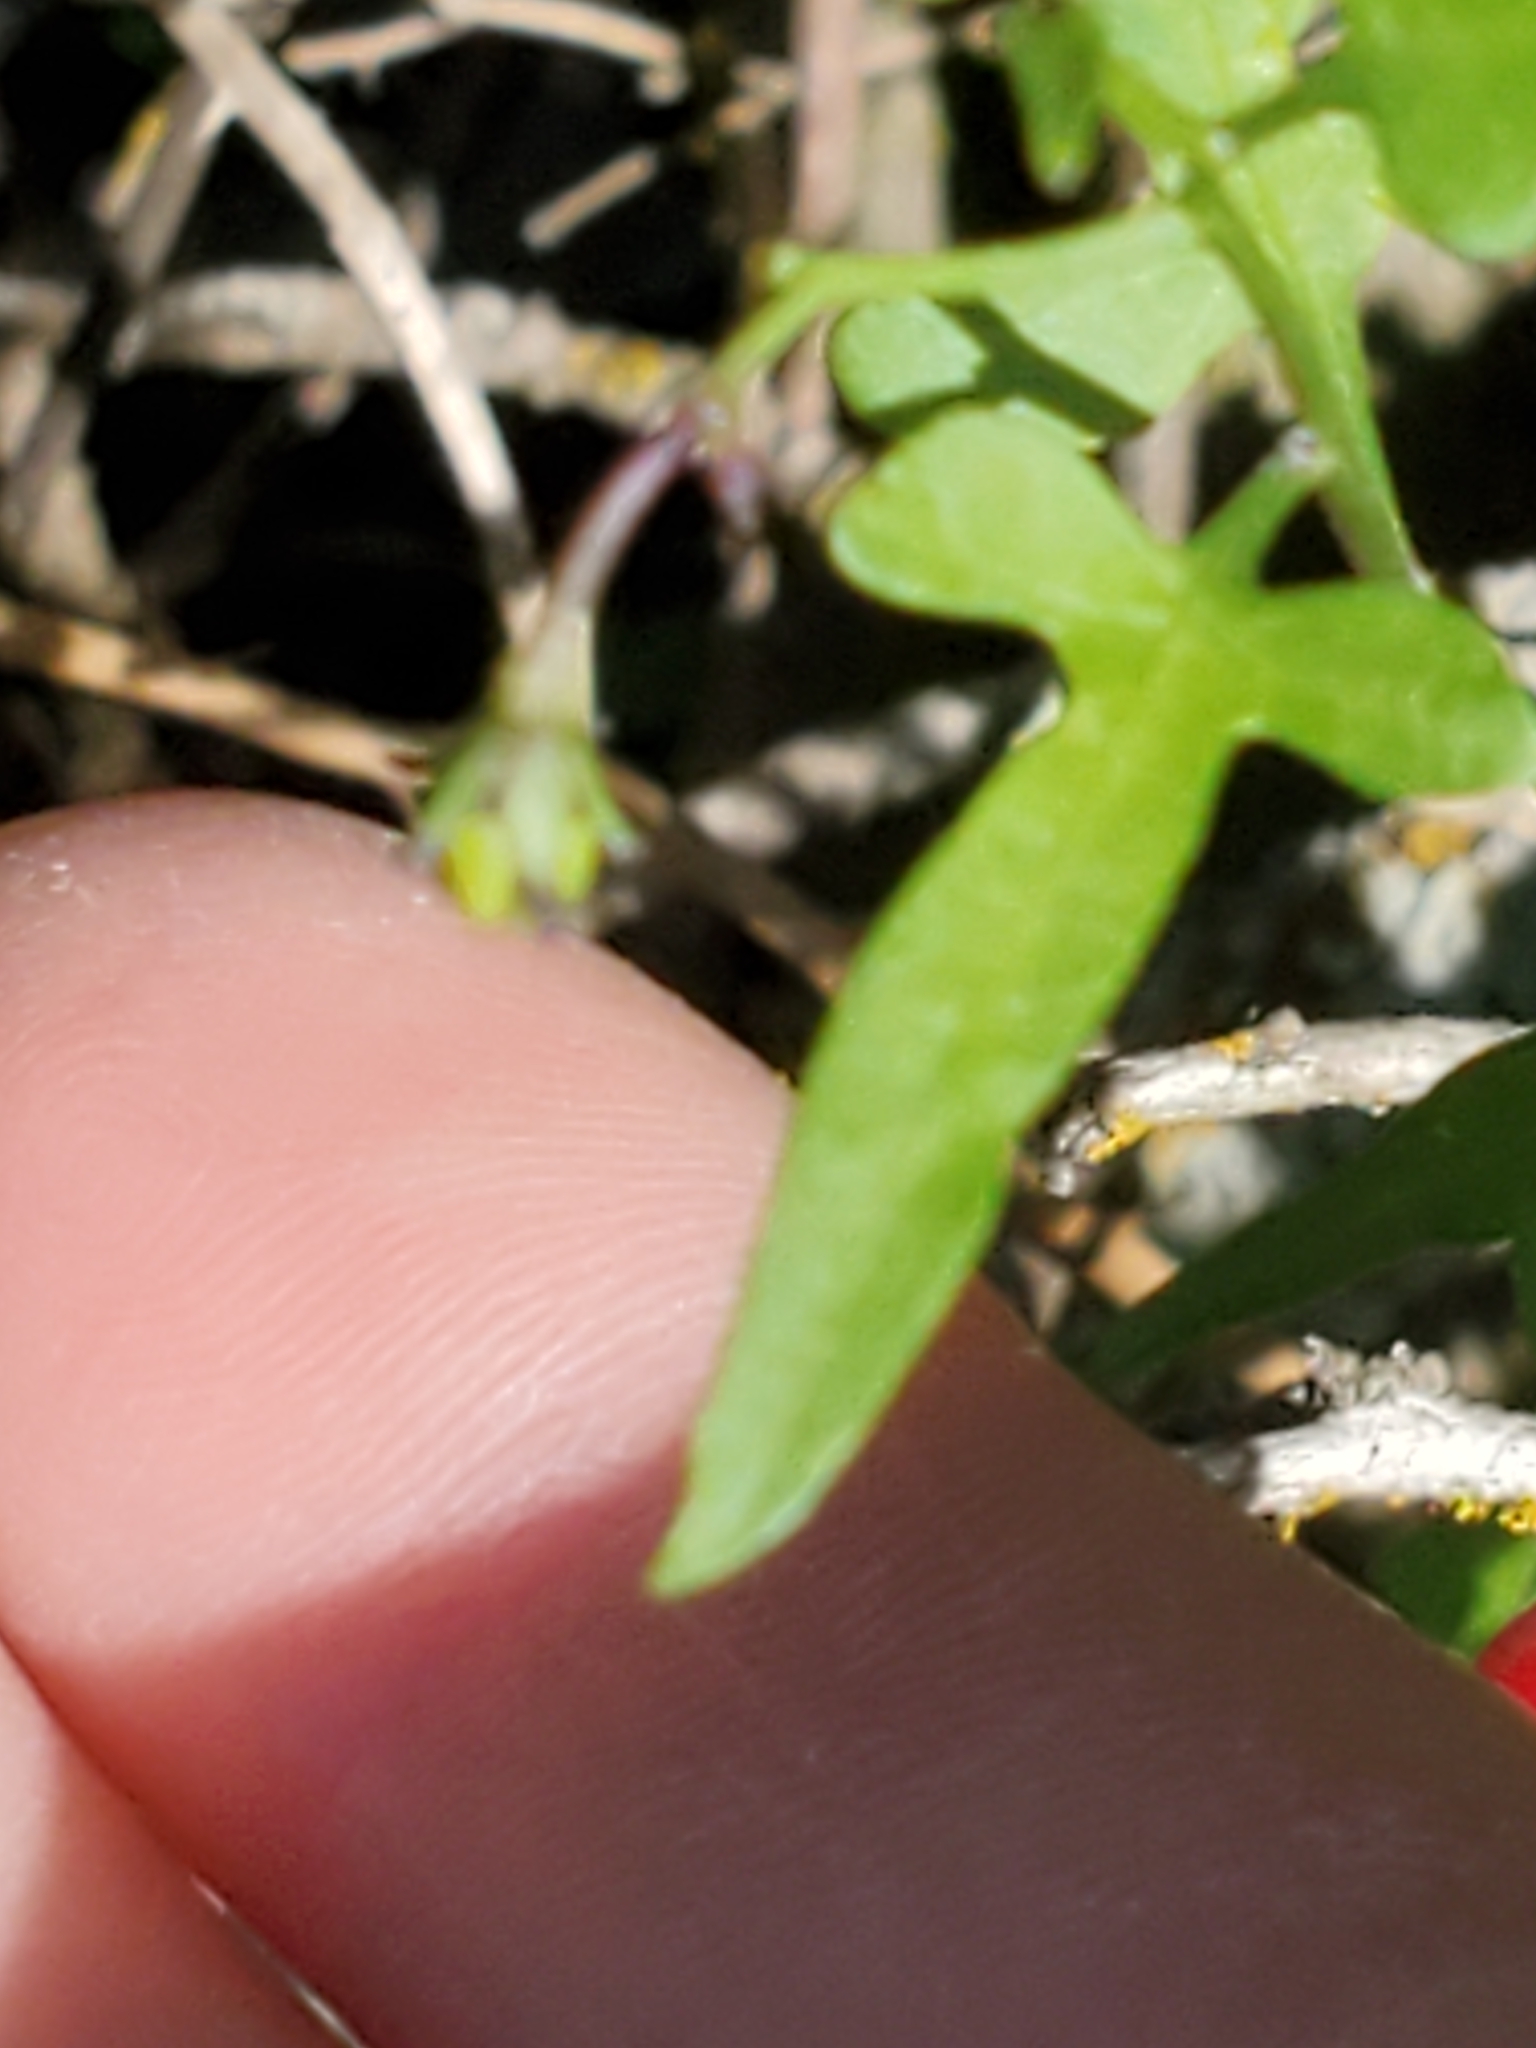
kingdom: Plantae
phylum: Tracheophyta
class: Magnoliopsida
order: Solanales
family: Solanaceae
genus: Solanum
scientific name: Solanum triquetrum
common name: Texas nightshade
